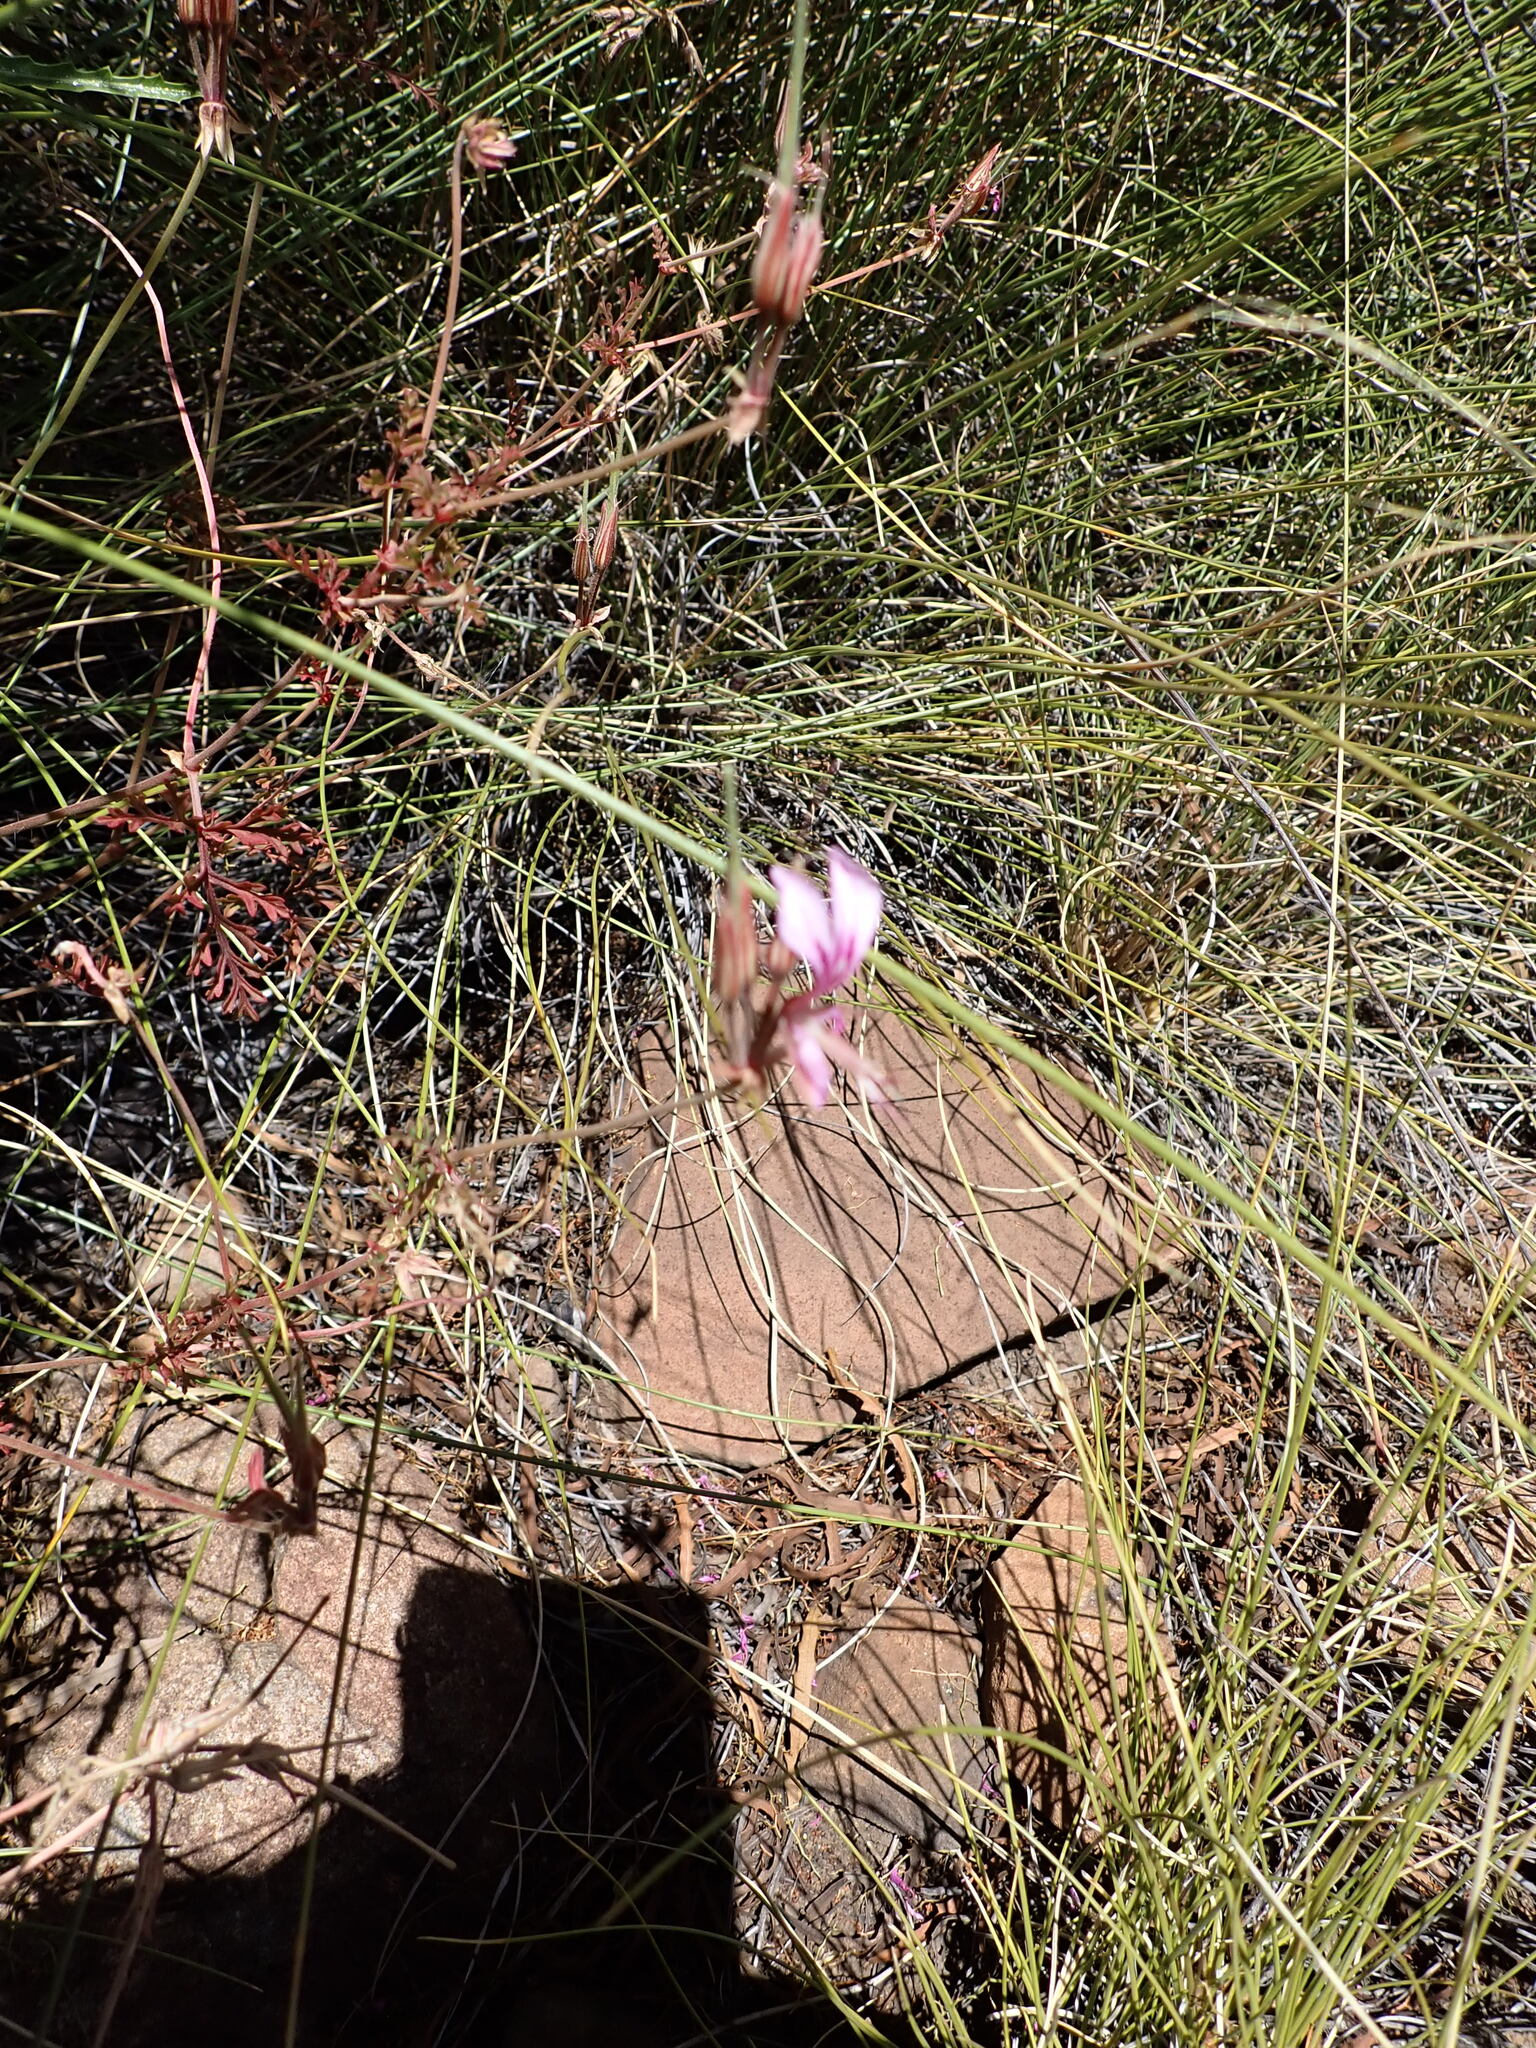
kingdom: Plantae
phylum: Tracheophyta
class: Magnoliopsida
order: Geraniales
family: Geraniaceae
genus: Pelargonium
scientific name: Pelargonium multicaule
